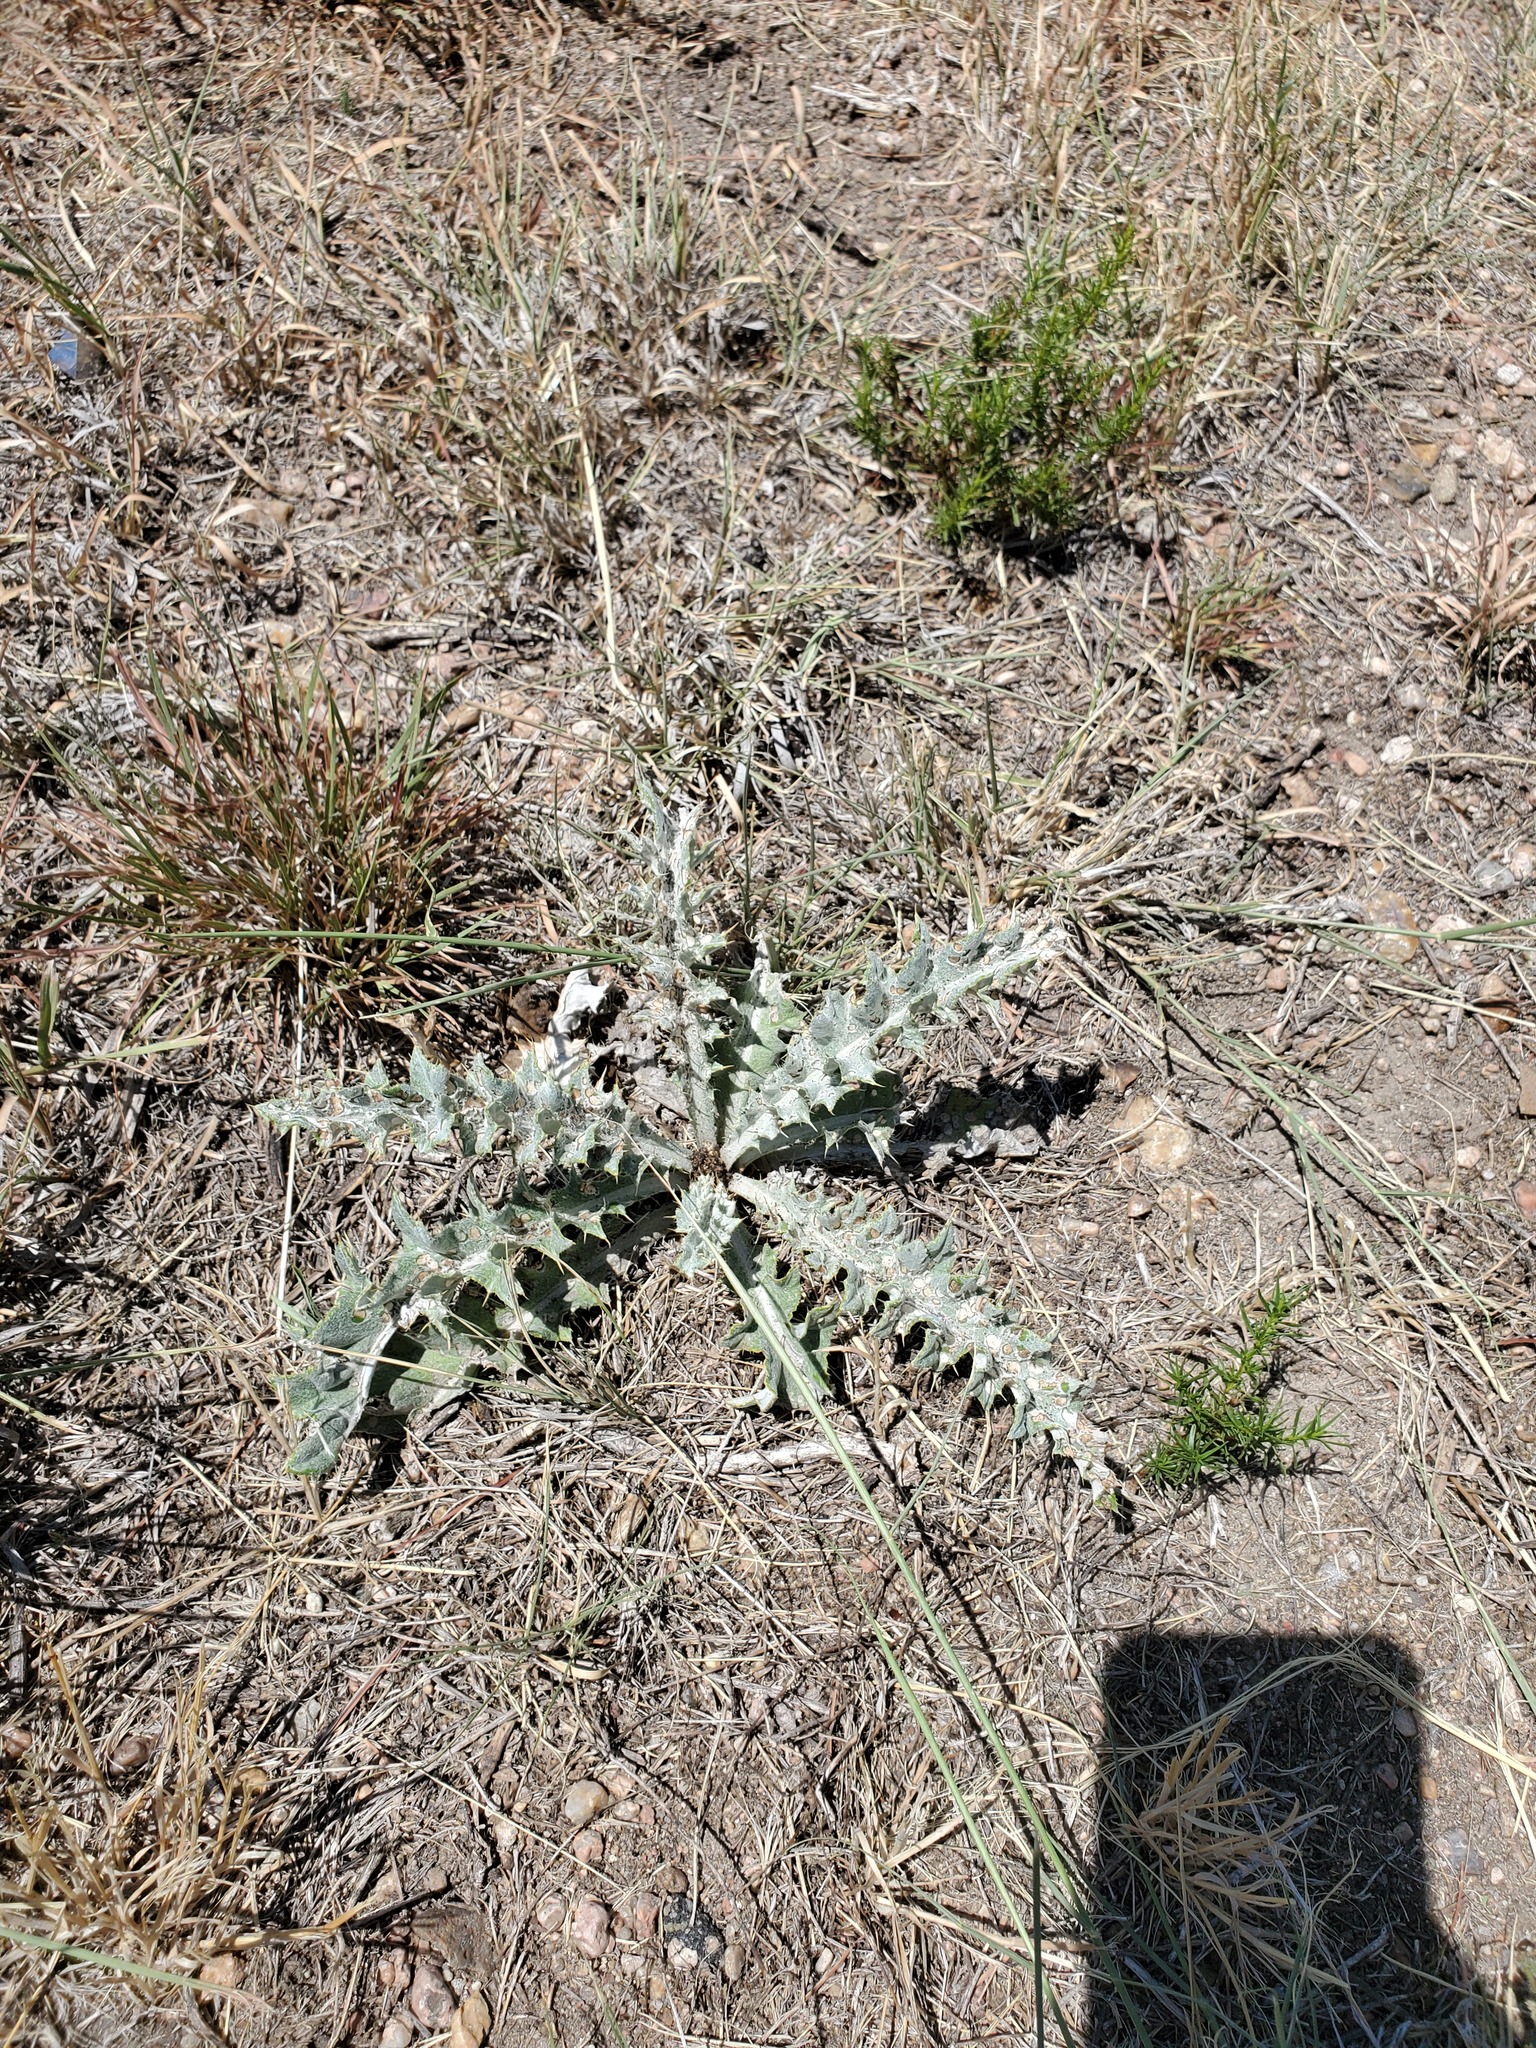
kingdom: Plantae
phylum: Tracheophyta
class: Magnoliopsida
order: Asterales
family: Asteraceae
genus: Cirsium
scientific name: Cirsium undulatum
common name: Pasture thistle
